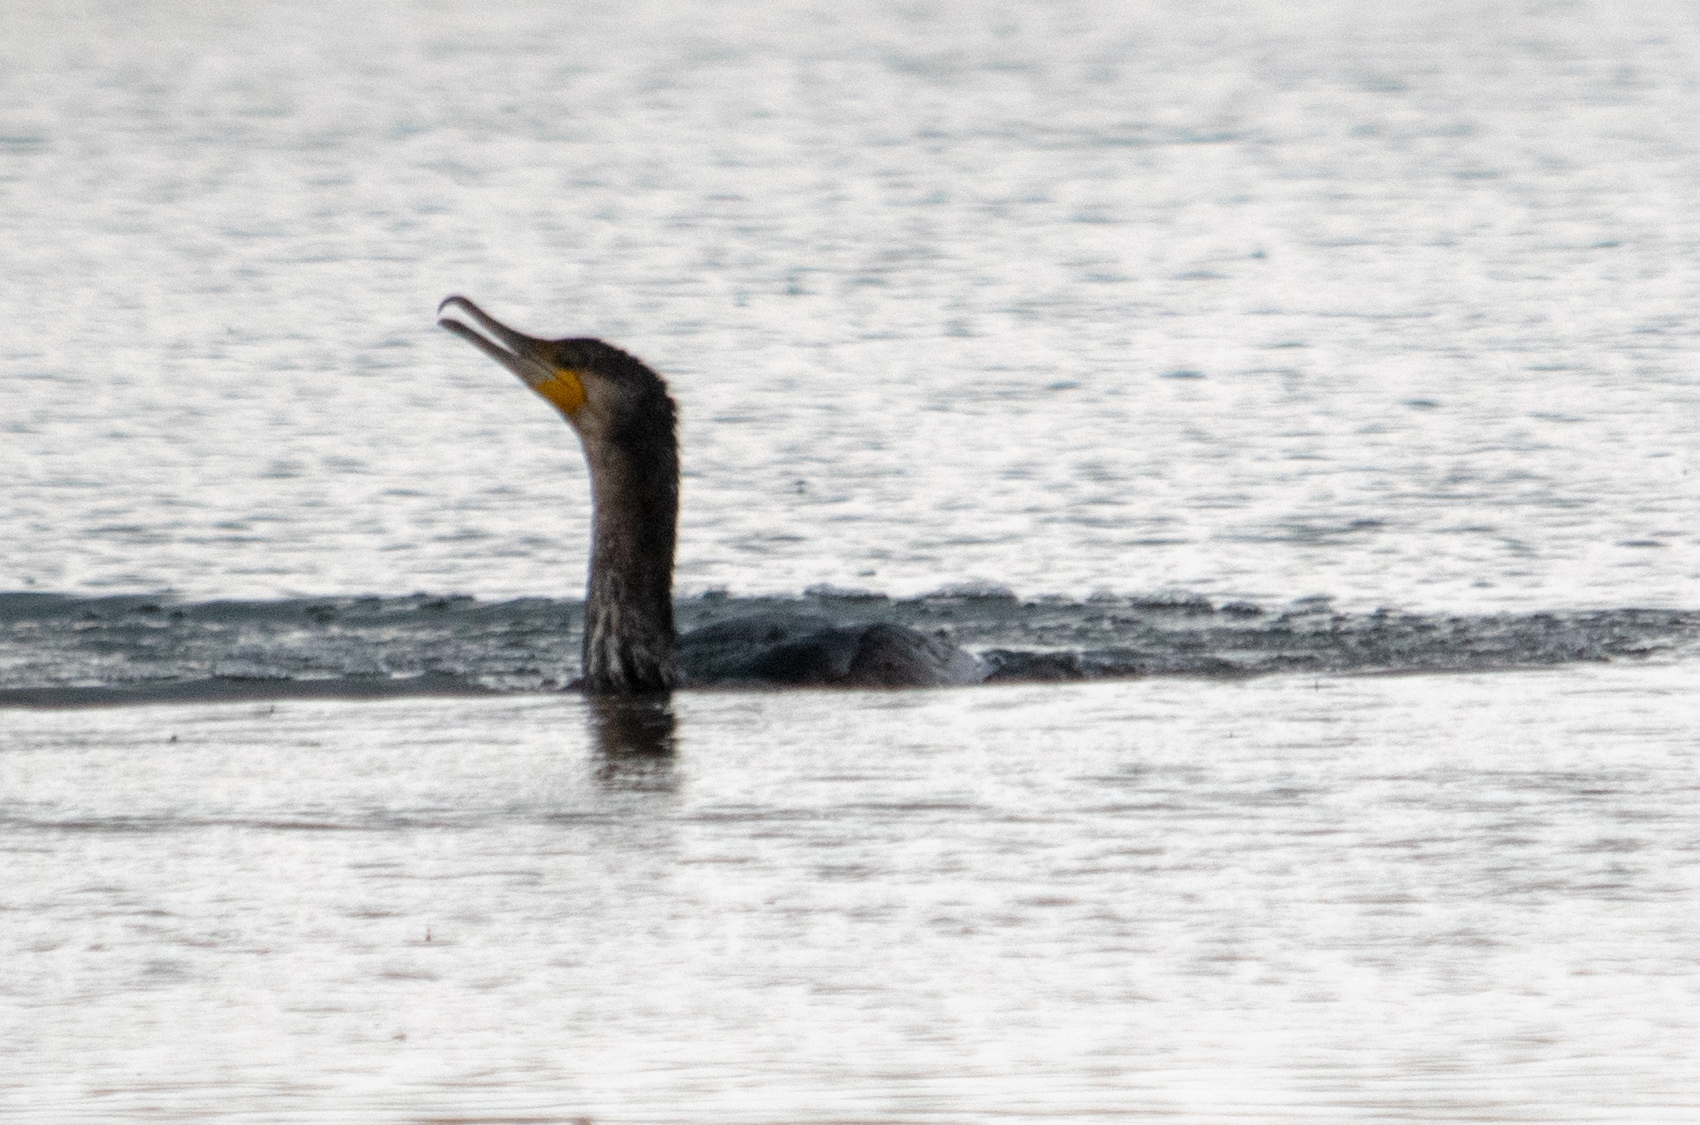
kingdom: Animalia
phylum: Chordata
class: Aves
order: Suliformes
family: Phalacrocoracidae
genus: Phalacrocorax
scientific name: Phalacrocorax carbo
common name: Great cormorant
